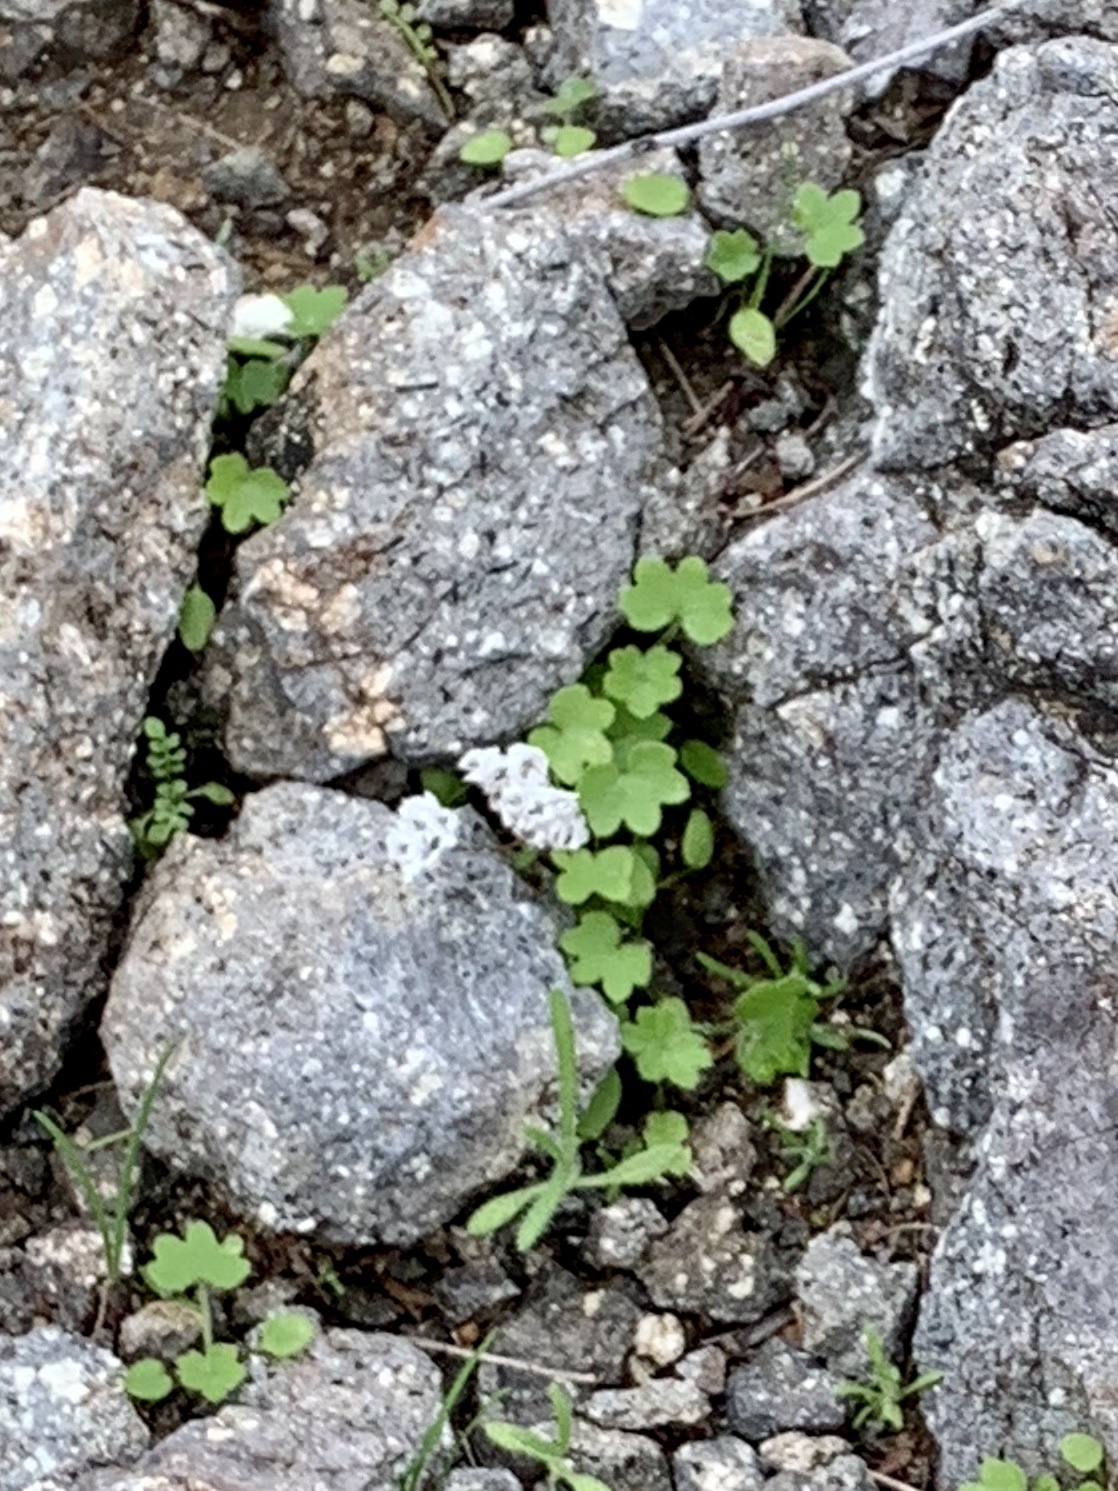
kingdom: Plantae
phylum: Tracheophyta
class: Magnoliopsida
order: Apiales
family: Apiaceae
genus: Bowlesia
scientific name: Bowlesia incana
